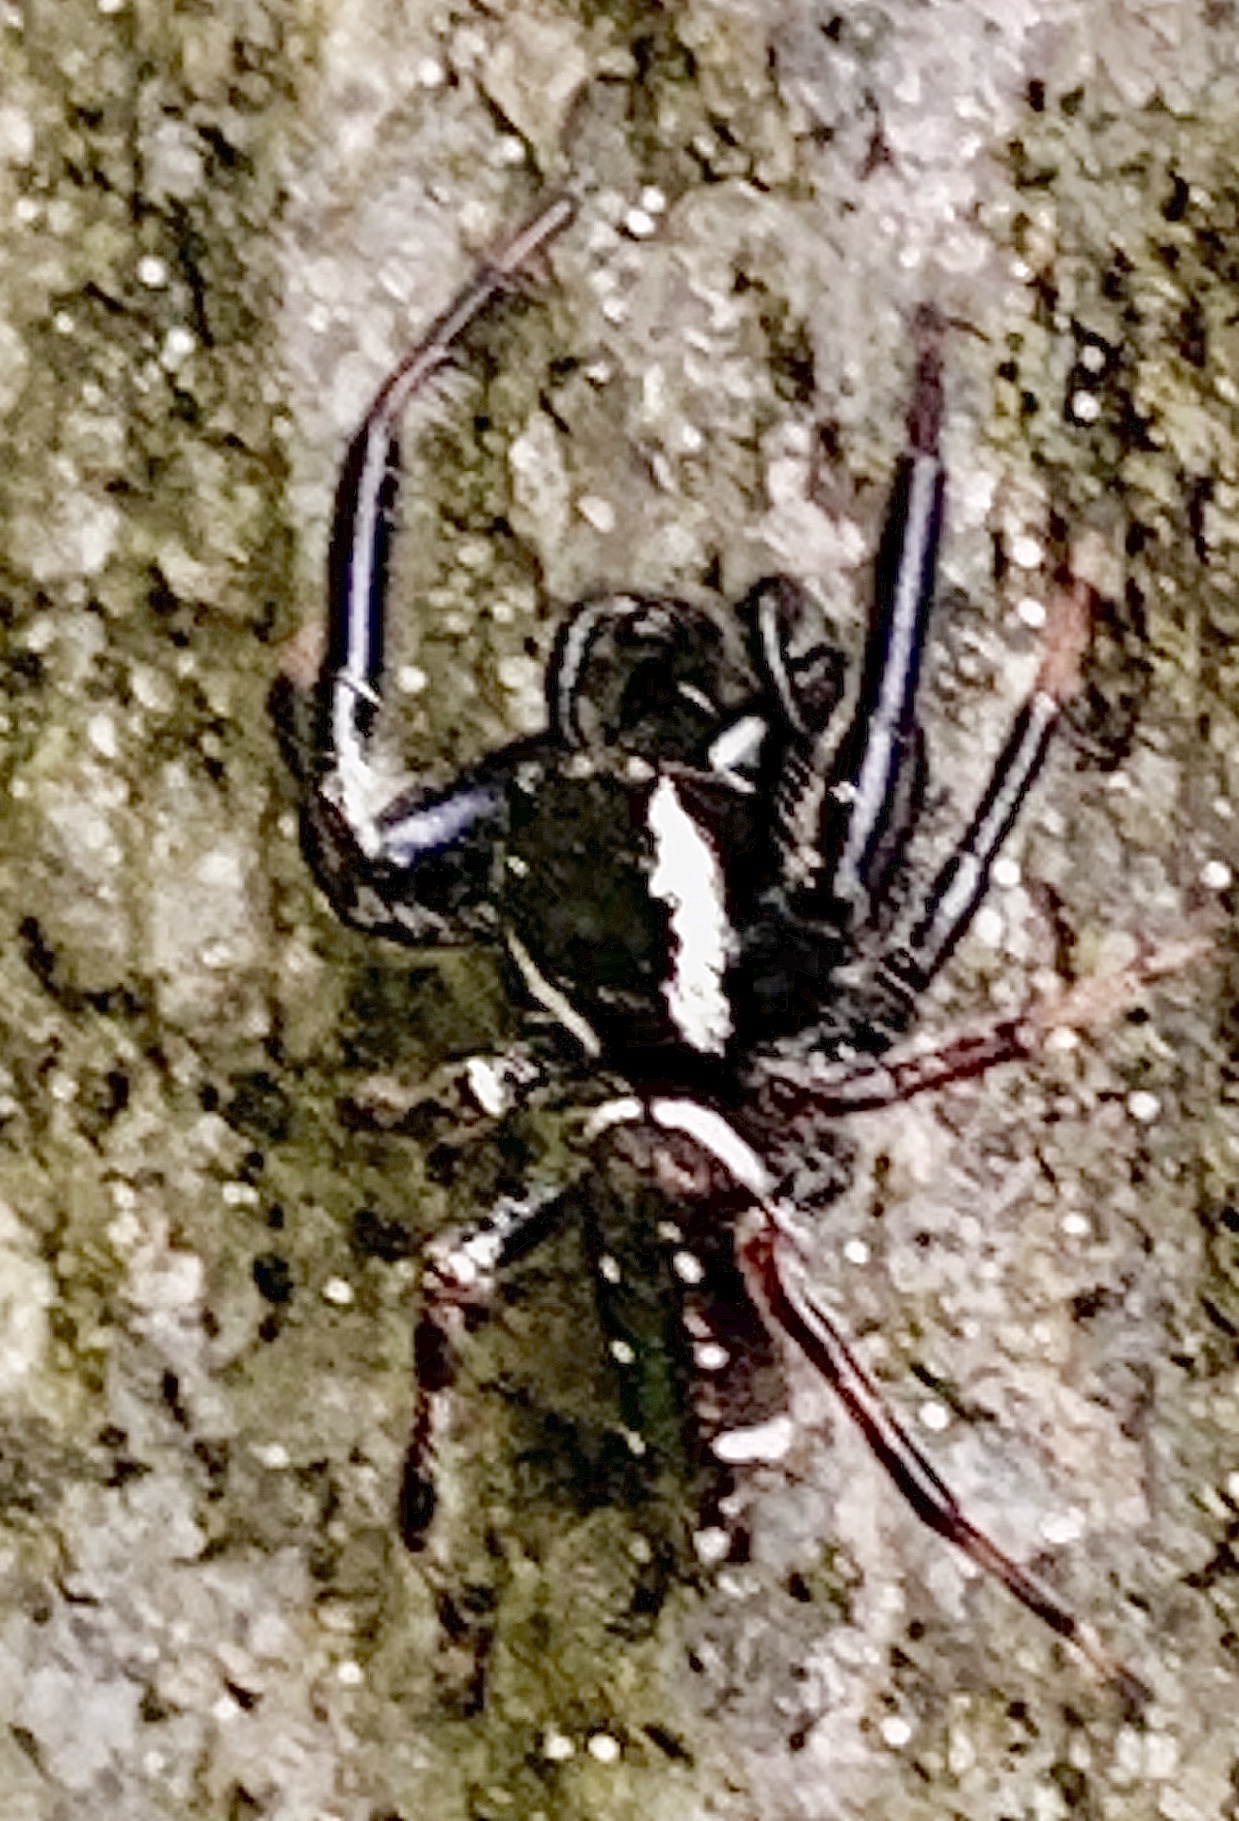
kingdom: Animalia
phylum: Arthropoda
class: Arachnida
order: Araneae
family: Salticidae
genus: Paraphidippus
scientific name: Paraphidippus aurantius
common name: Jumping spiders
